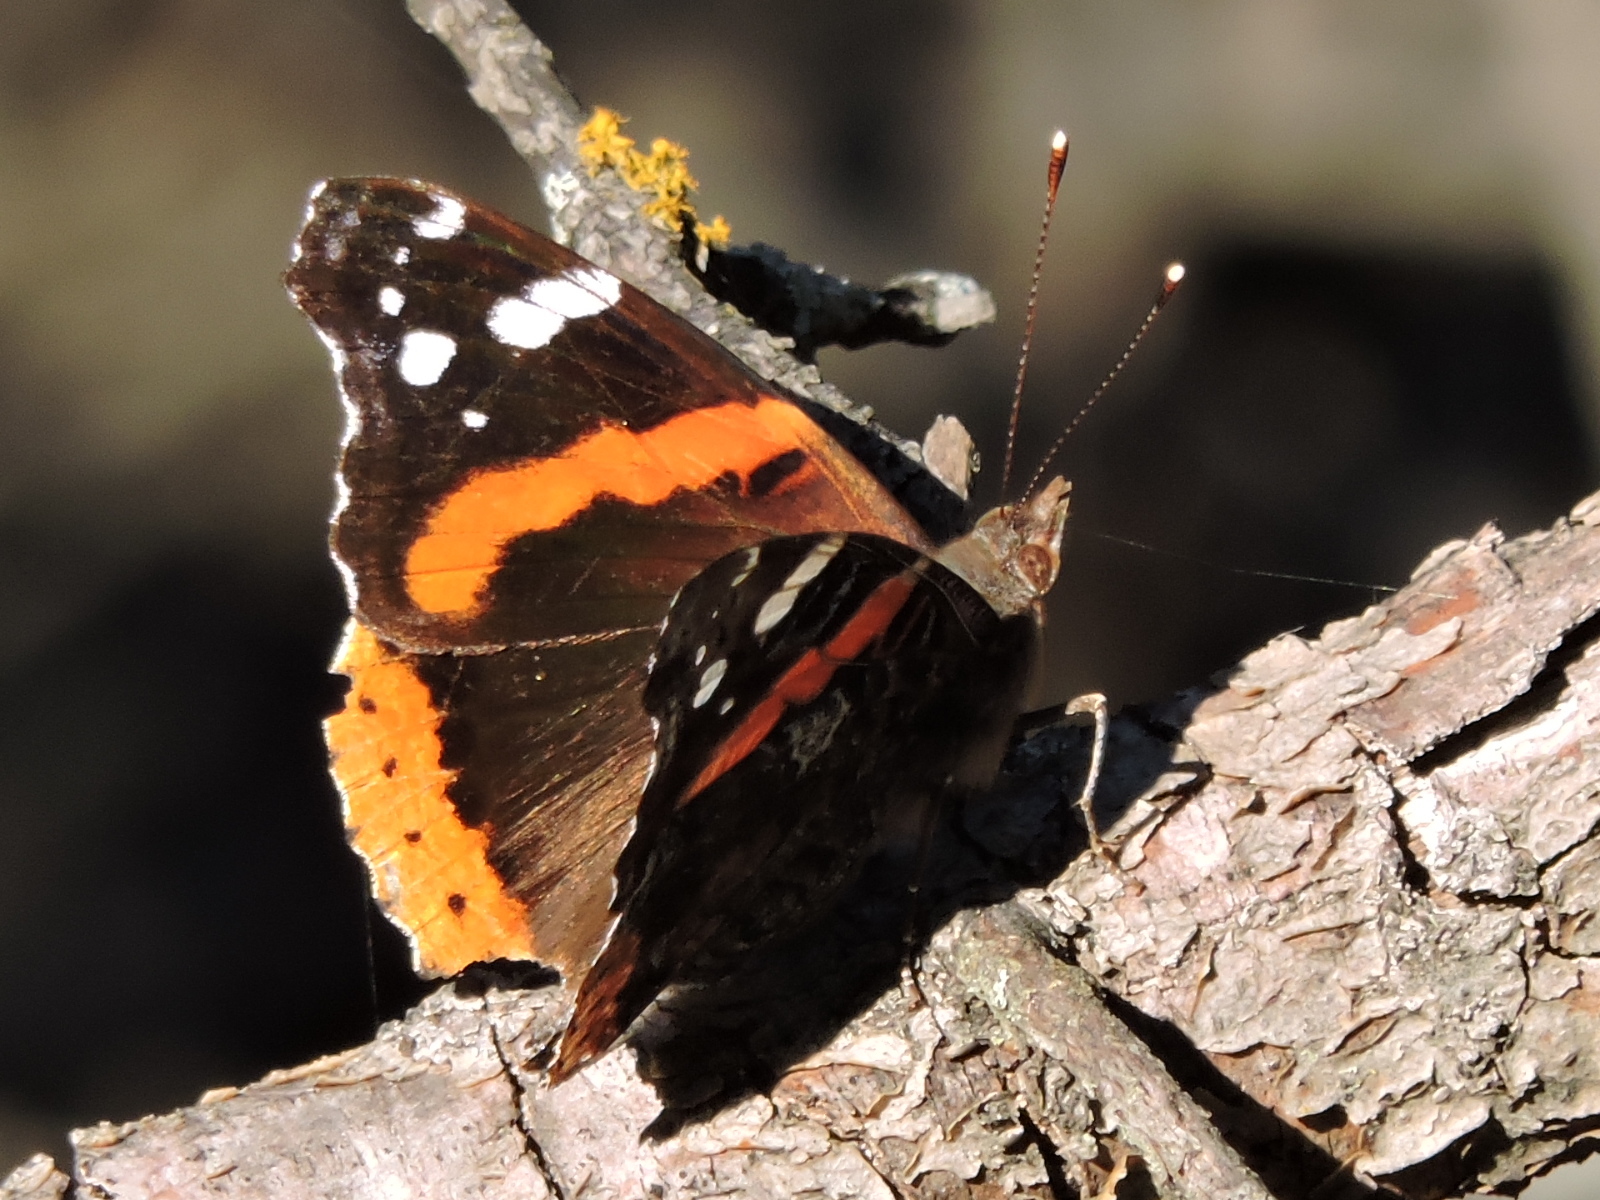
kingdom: Animalia
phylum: Arthropoda
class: Insecta
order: Lepidoptera
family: Nymphalidae
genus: Vanessa
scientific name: Vanessa atalanta
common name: Red admiral
